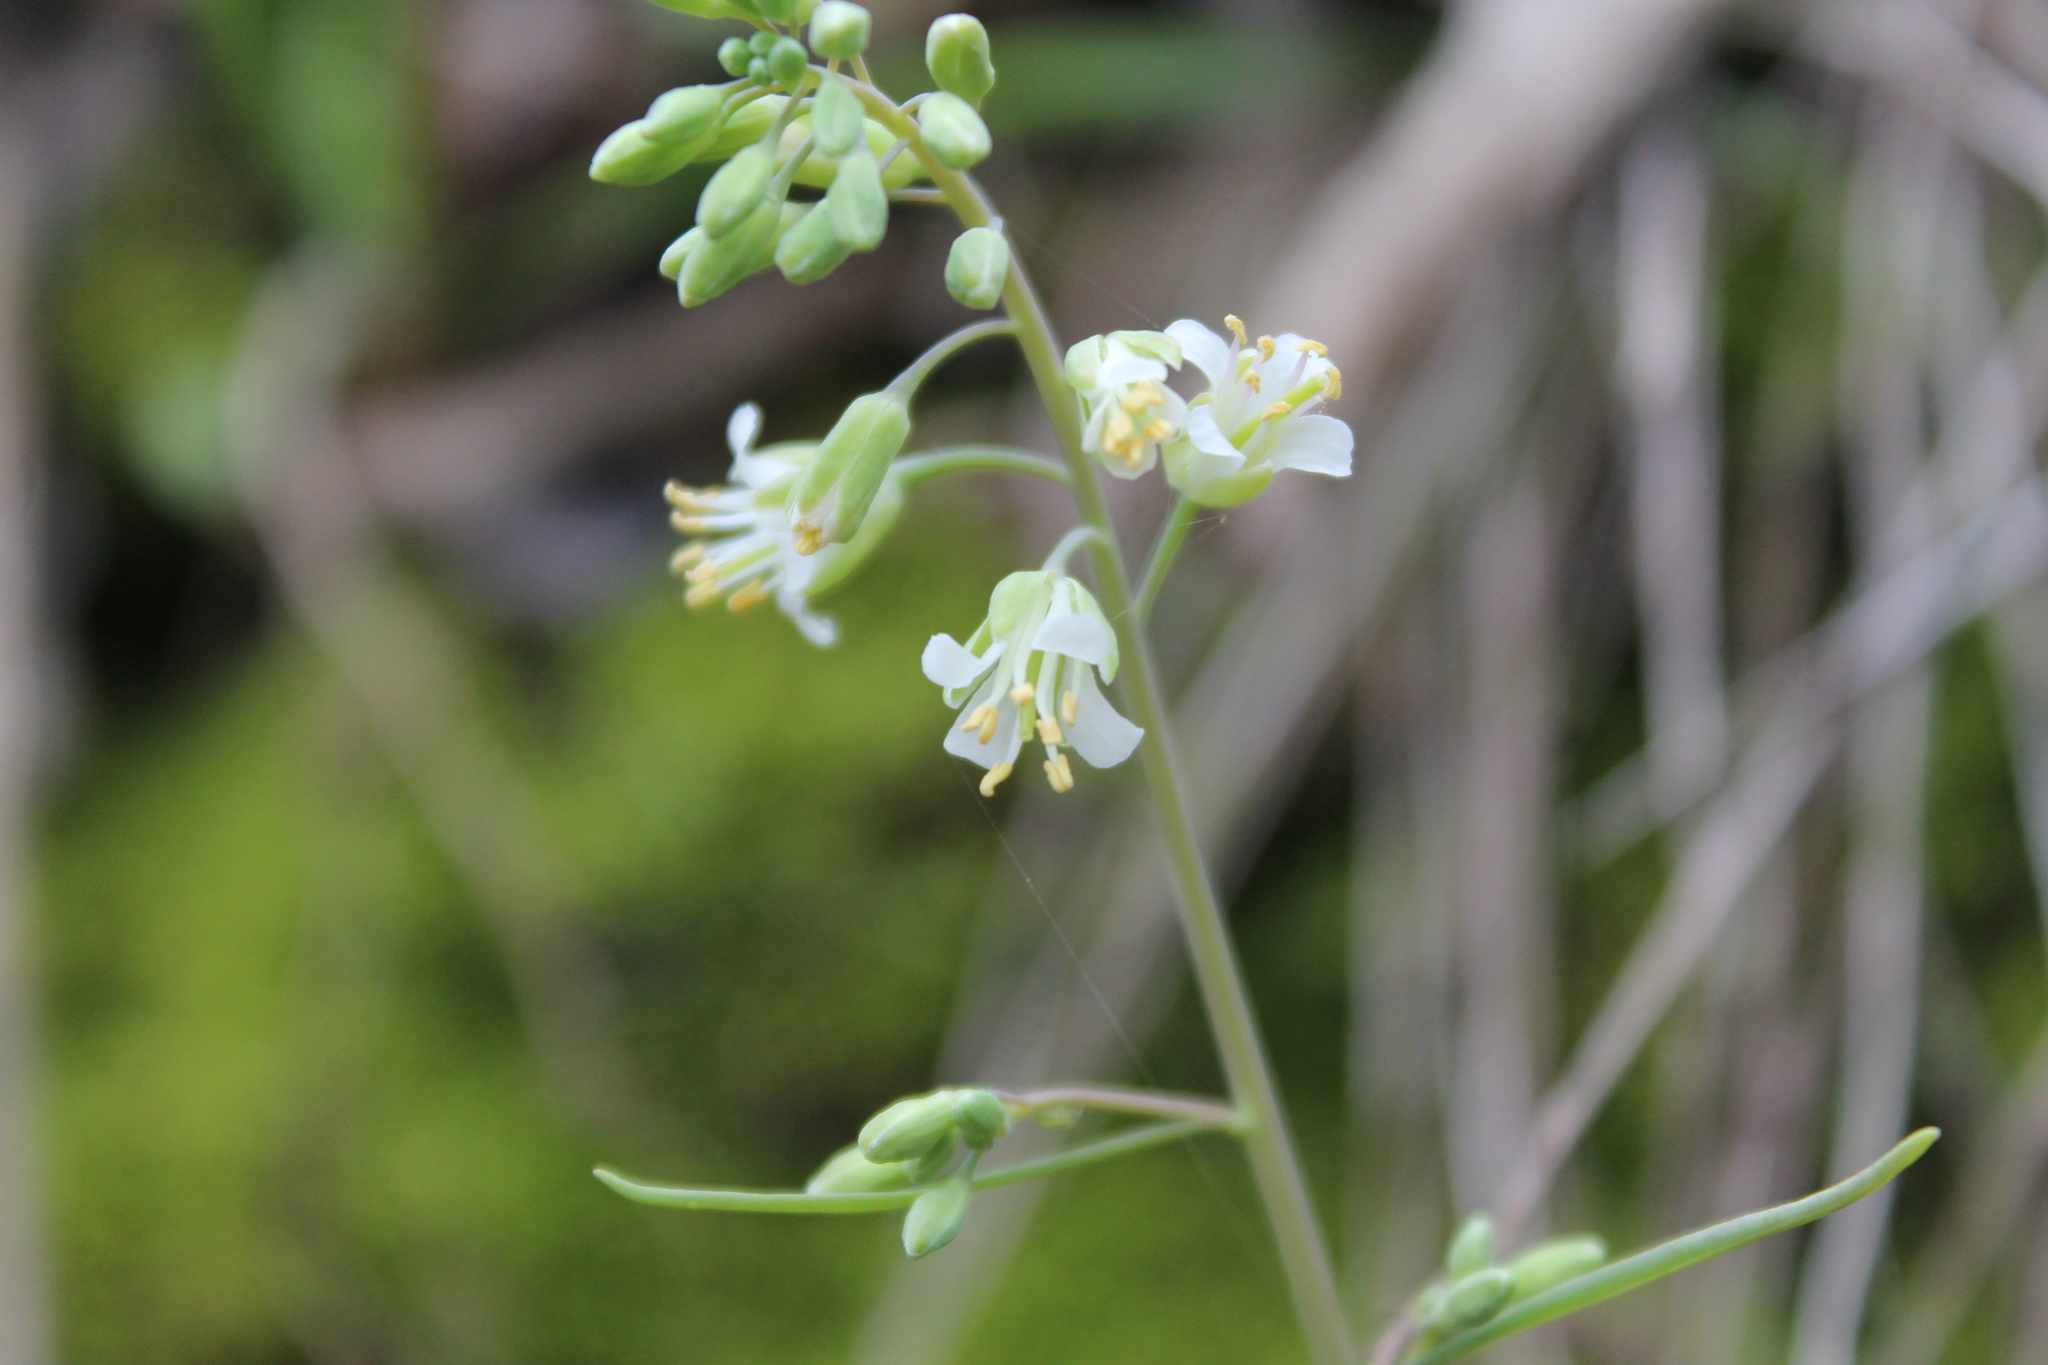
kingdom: Plantae
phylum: Tracheophyta
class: Magnoliopsida
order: Brassicales
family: Brassicaceae
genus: Borodinia
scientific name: Borodinia laevigata
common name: Smooth rockcress
